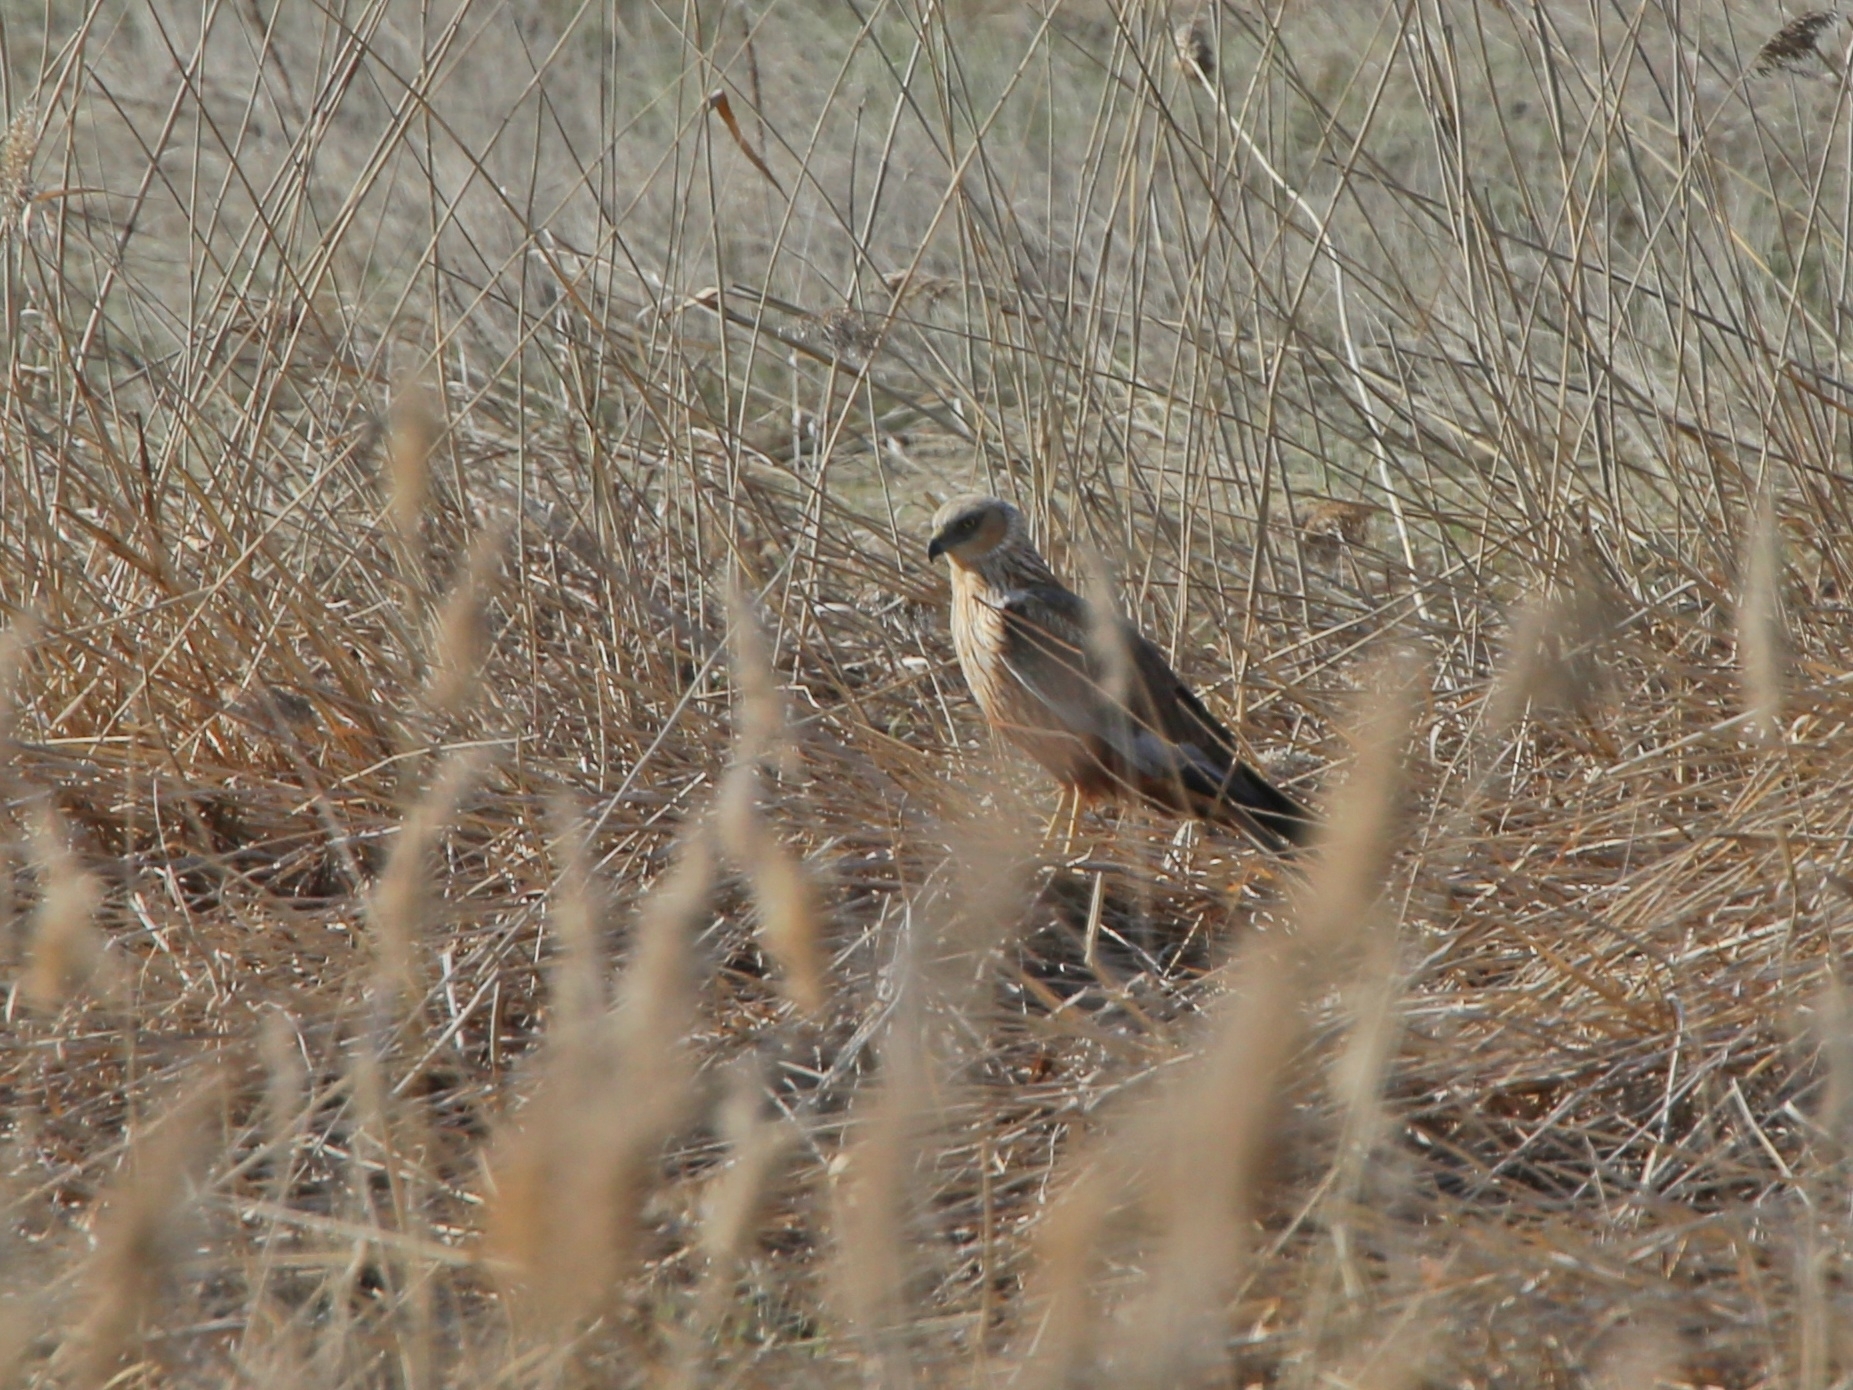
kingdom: Animalia
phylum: Chordata
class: Aves
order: Accipitriformes
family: Accipitridae
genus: Circus
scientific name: Circus aeruginosus
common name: Western marsh harrier
